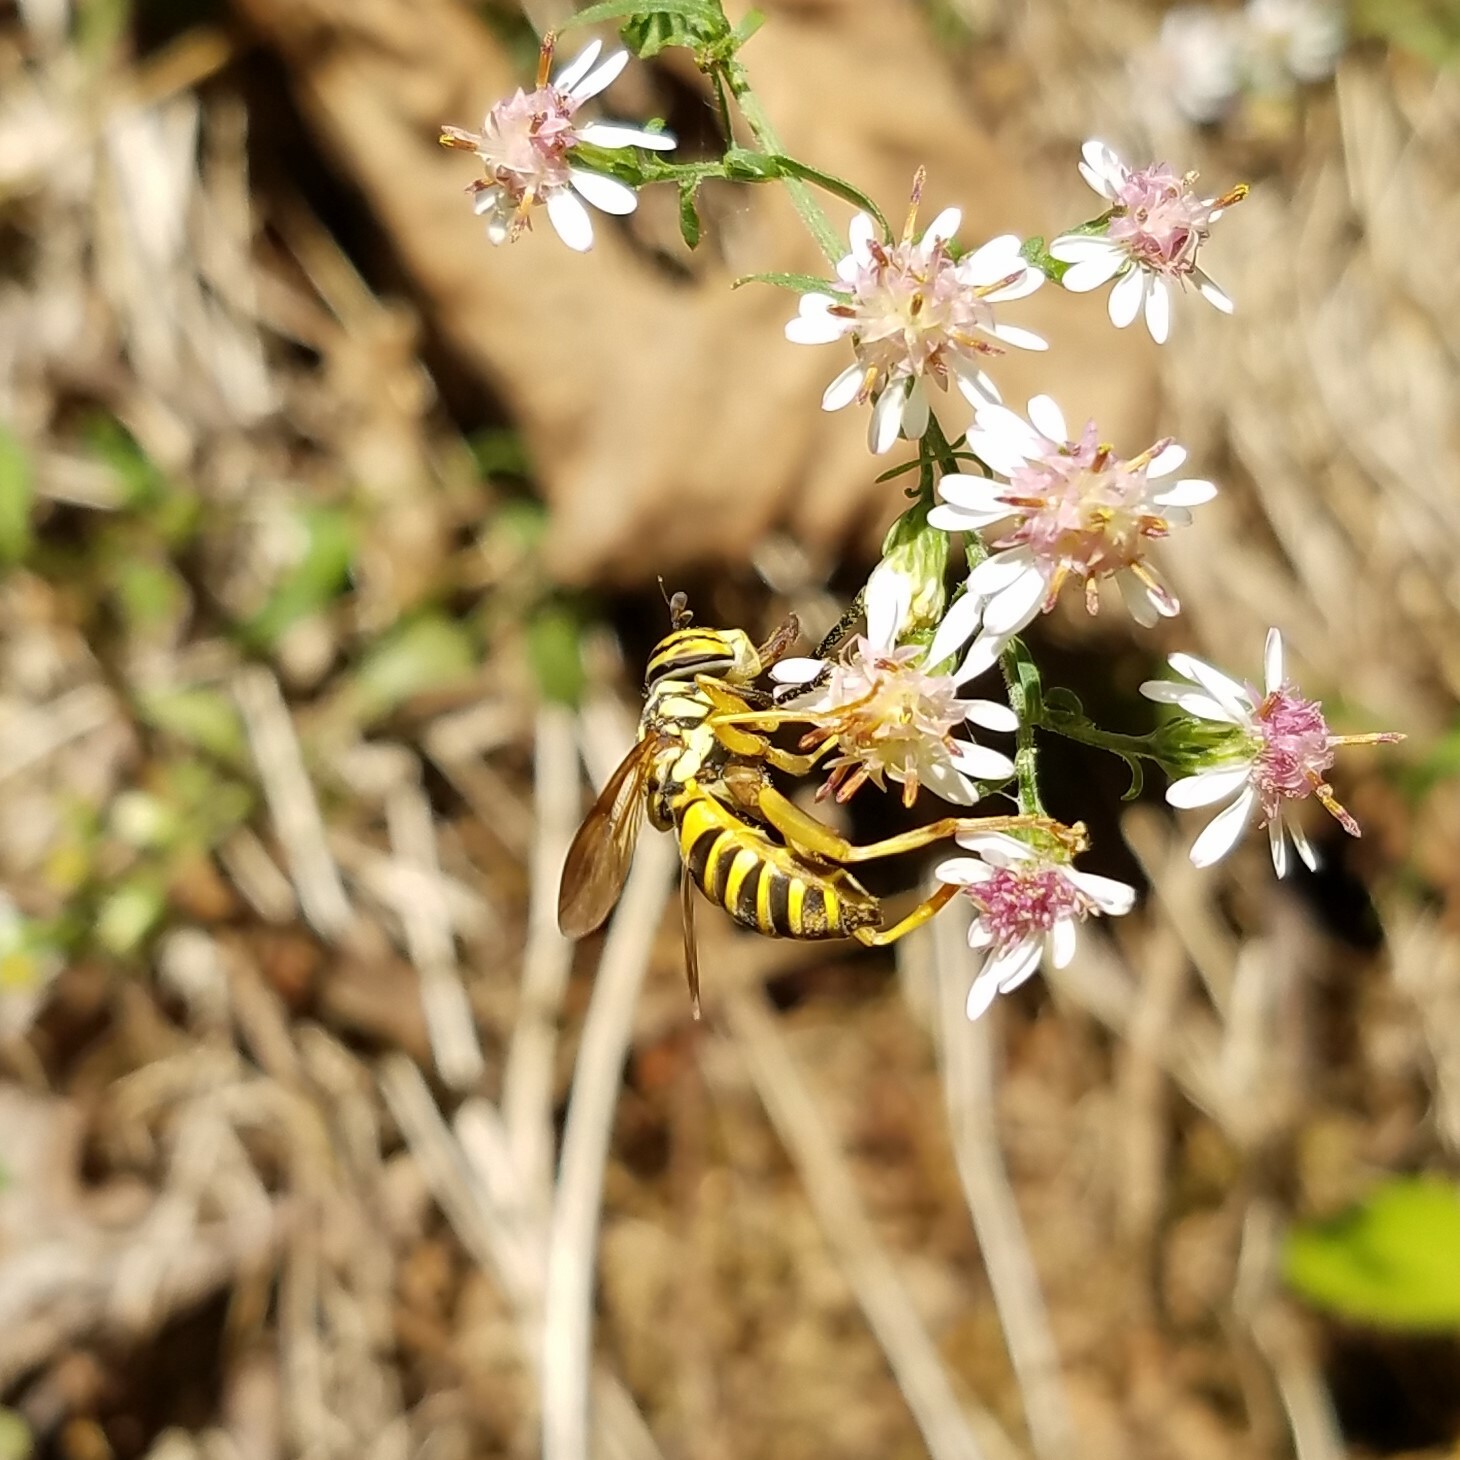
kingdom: Animalia
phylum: Arthropoda
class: Insecta
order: Diptera
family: Syrphidae
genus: Spilomyia
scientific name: Spilomyia longicornis
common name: Eastern hornet fly
